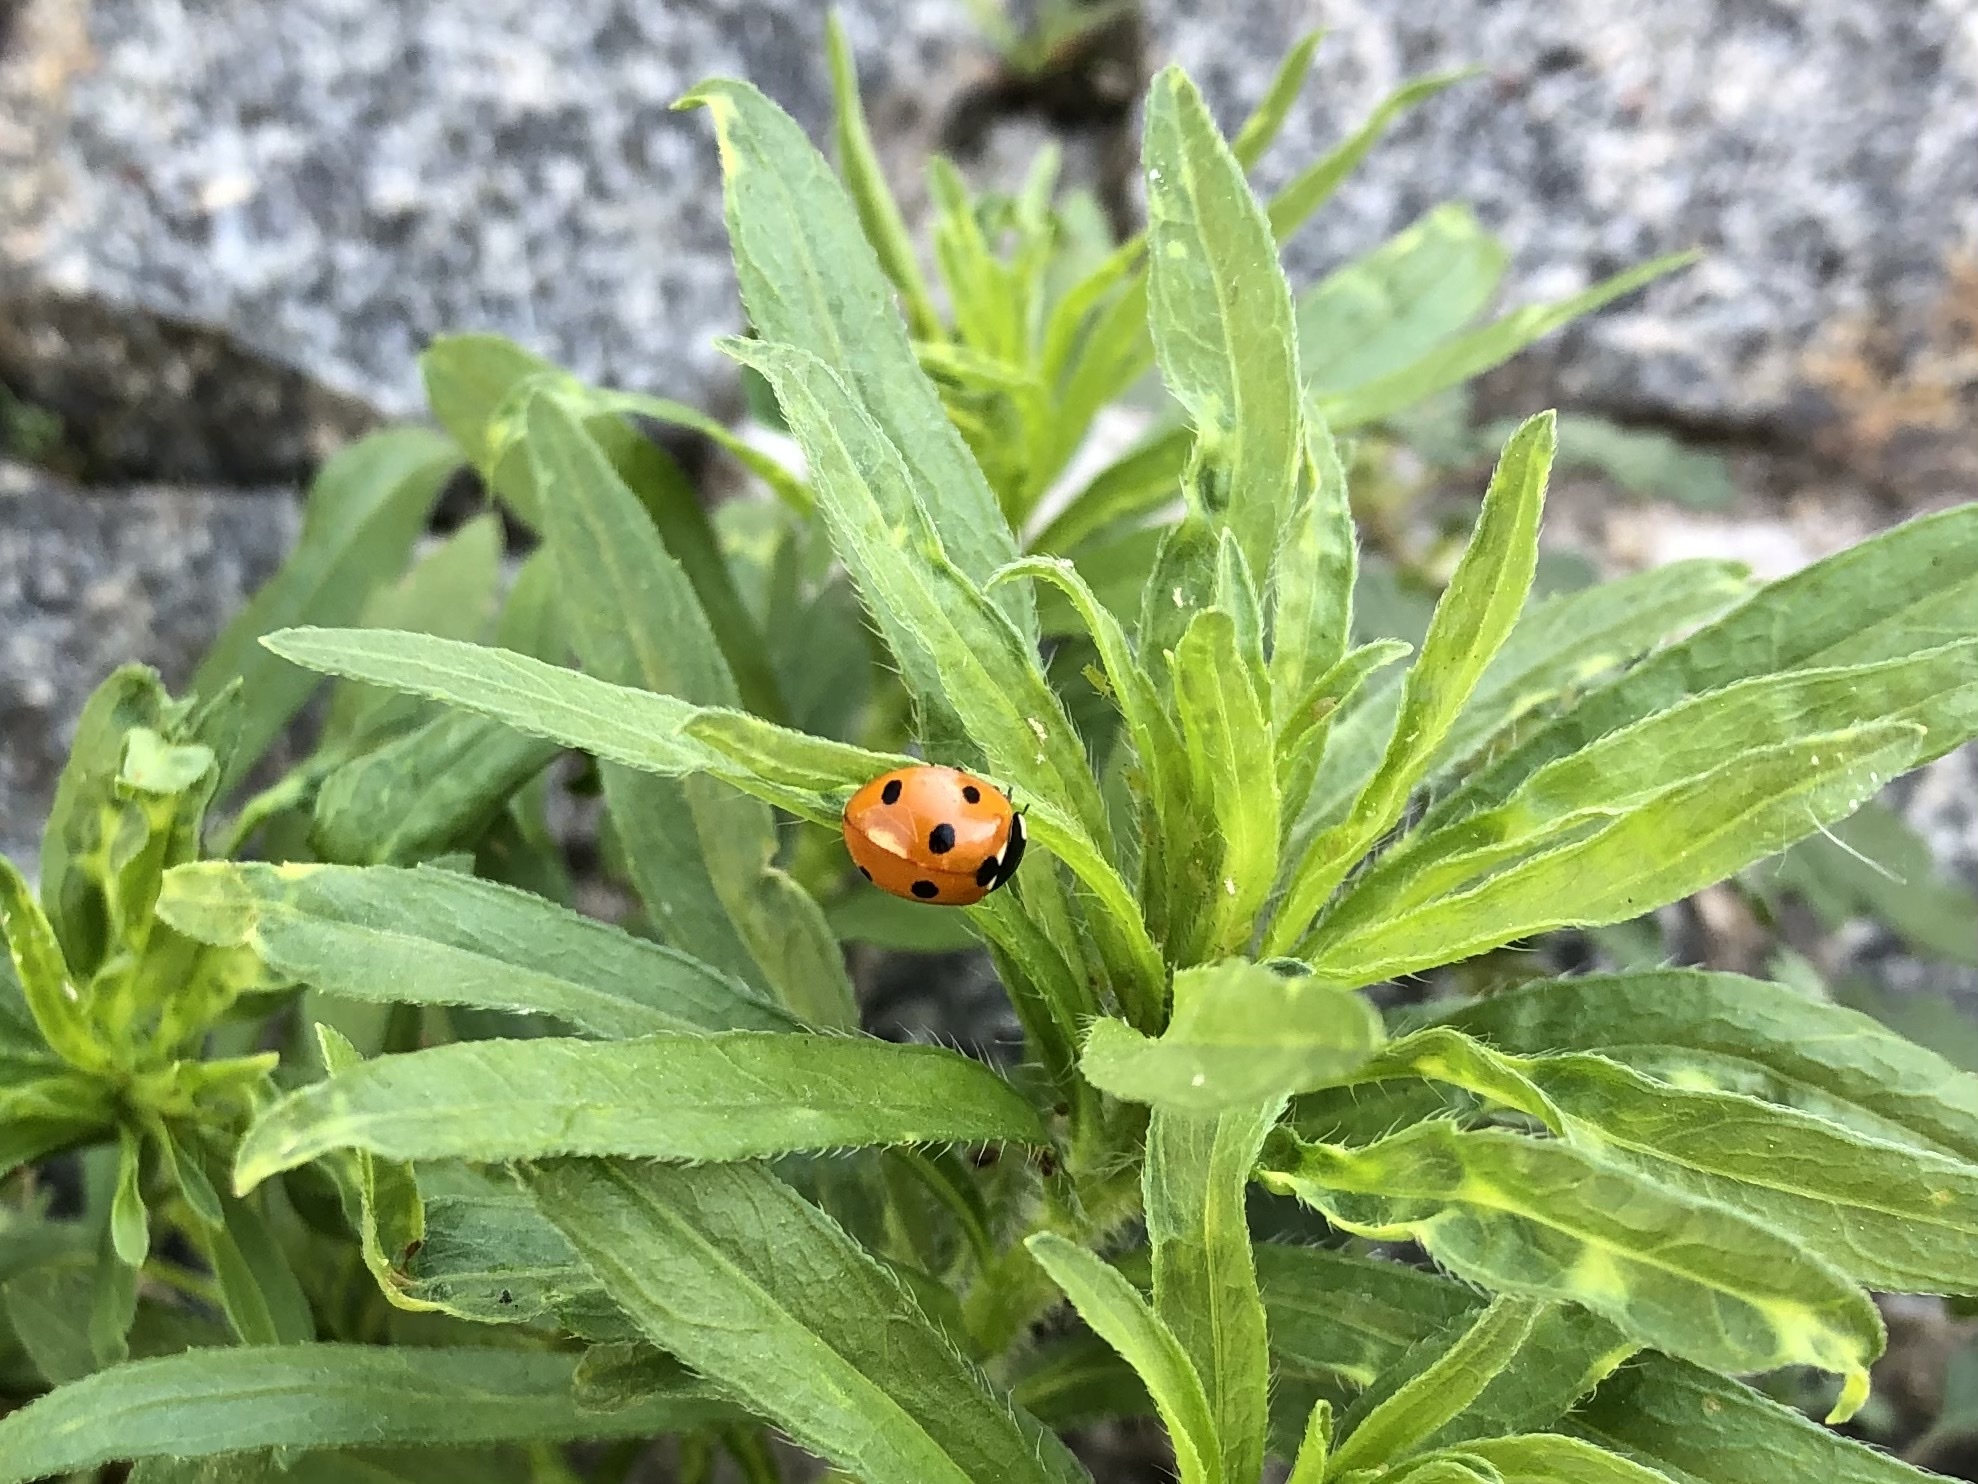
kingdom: Animalia
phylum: Arthropoda
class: Insecta
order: Coleoptera
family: Coccinellidae
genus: Coccinella
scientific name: Coccinella septempunctata
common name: Sevenspotted lady beetle
